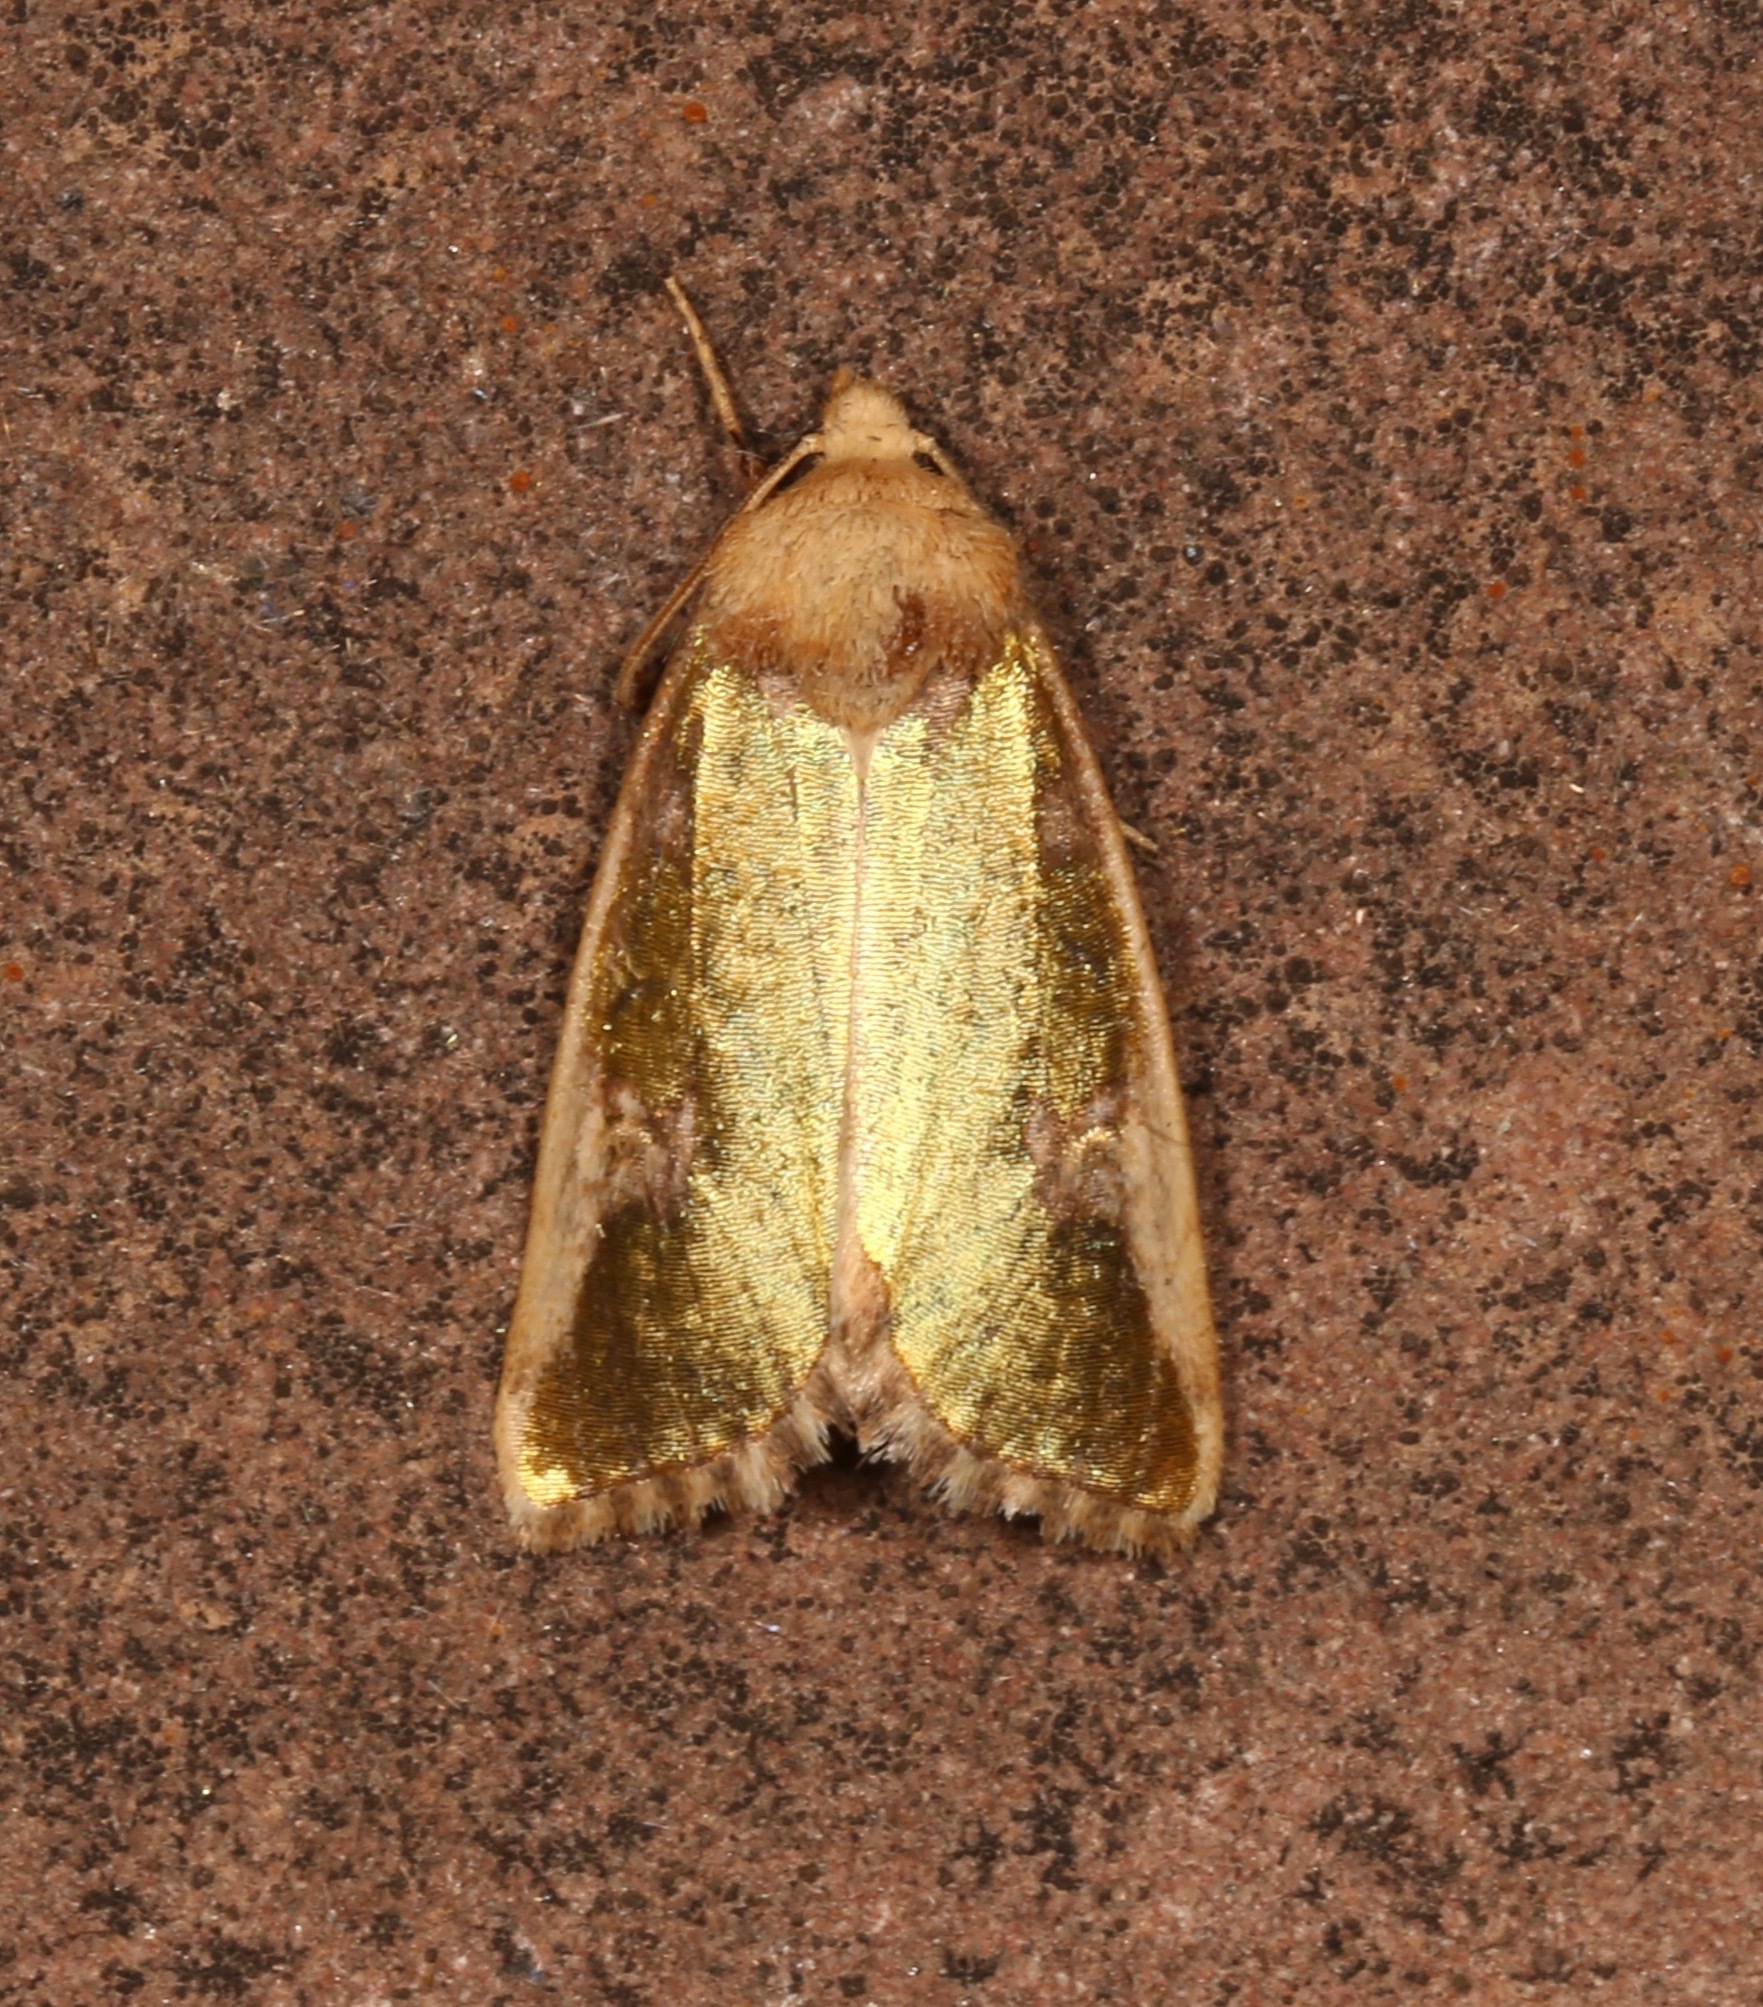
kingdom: Animalia
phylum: Arthropoda
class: Insecta
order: Lepidoptera
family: Noctuidae
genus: Chalcopasta
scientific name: Chalcopasta territans
